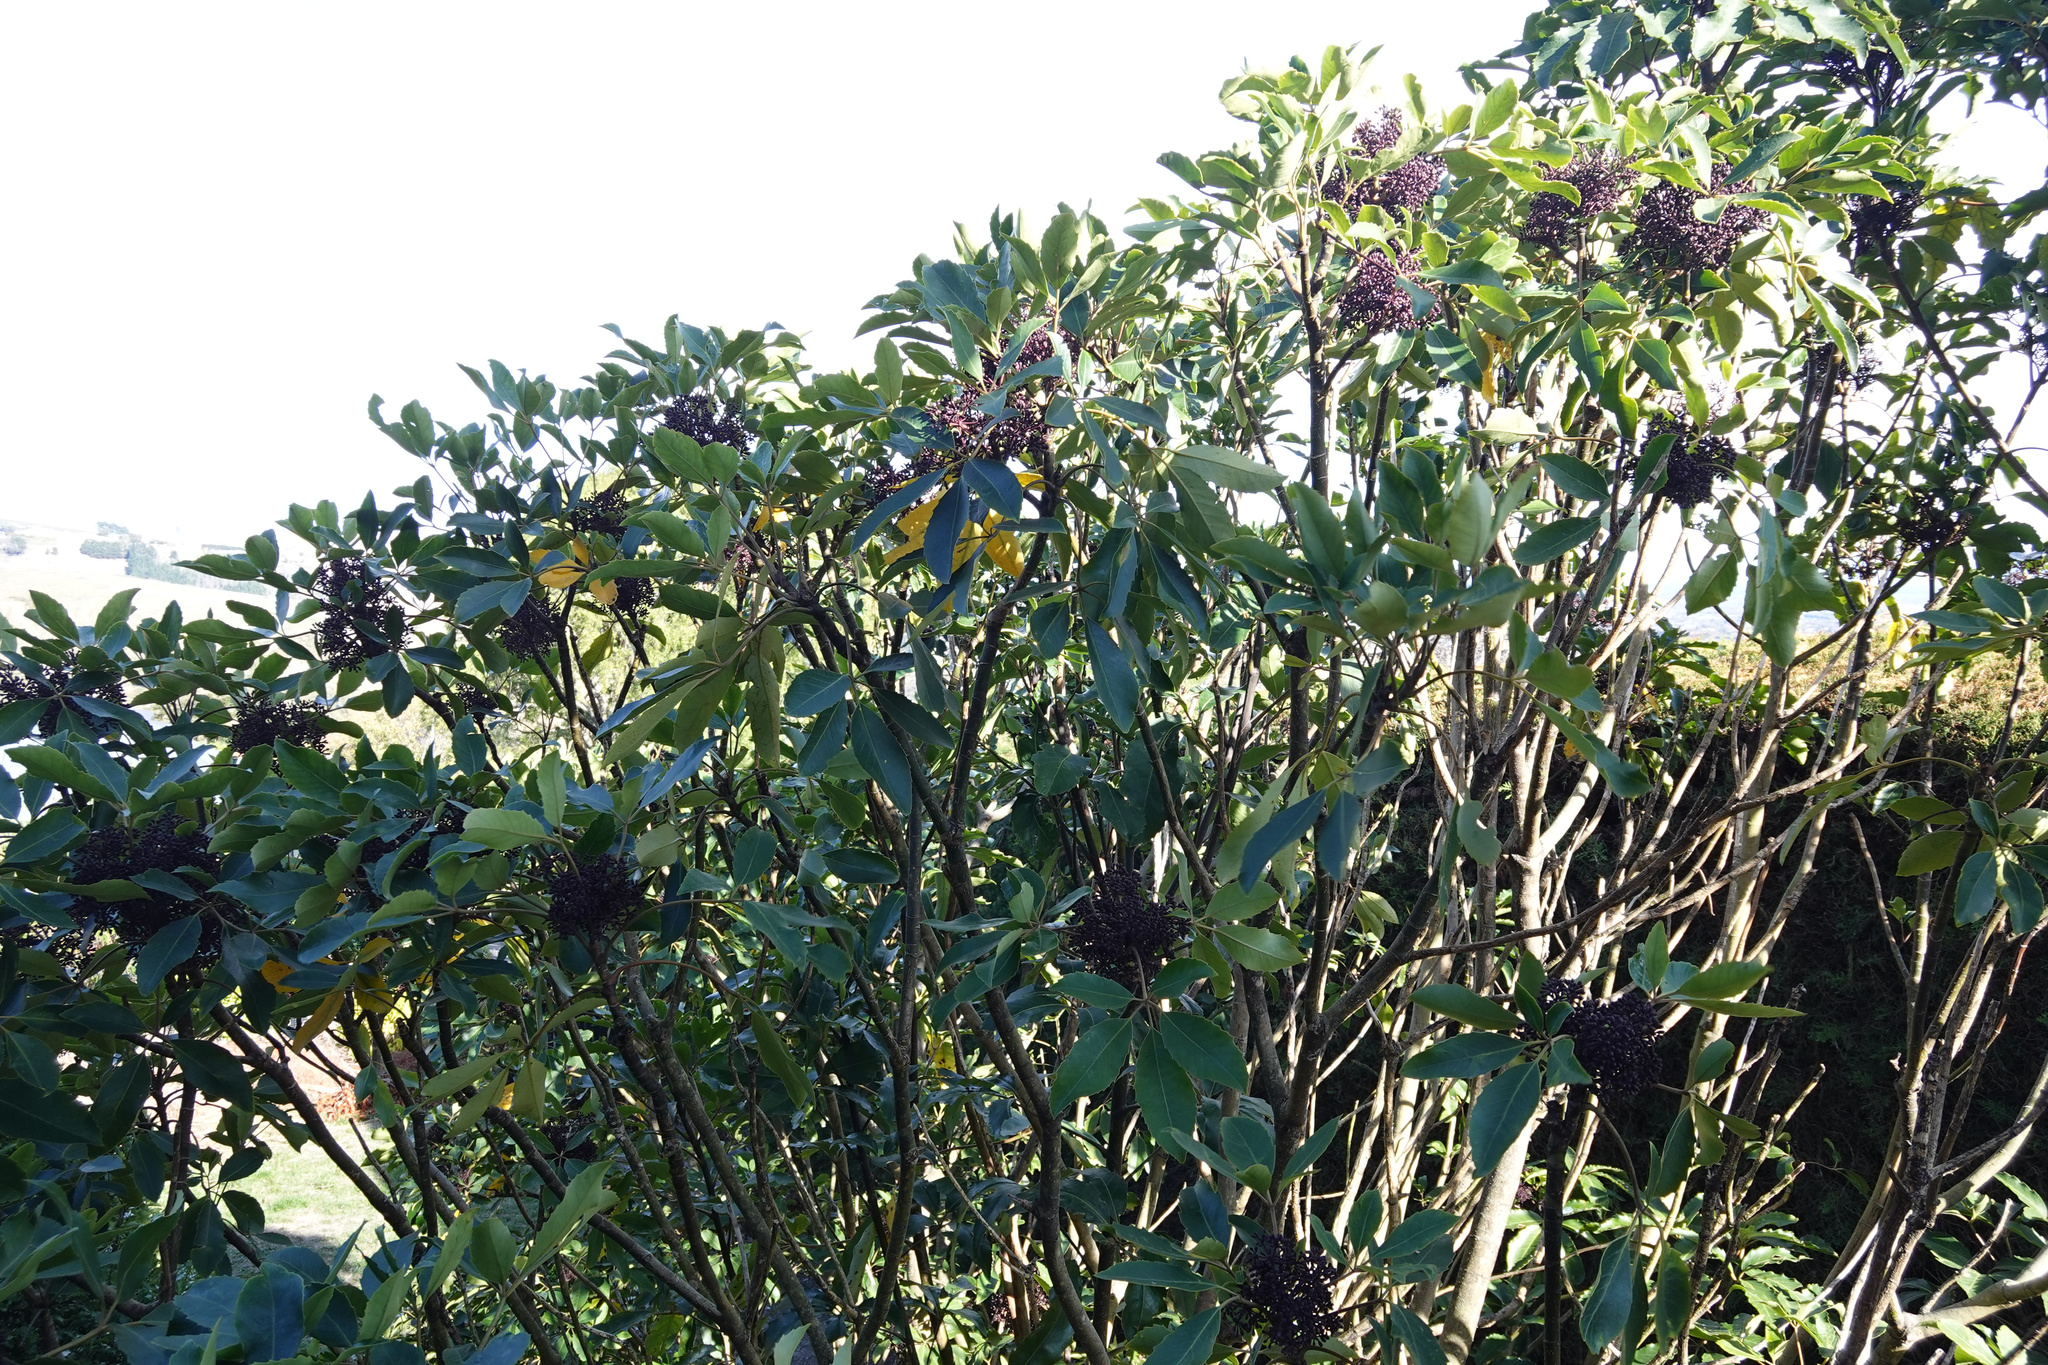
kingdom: Plantae
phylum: Tracheophyta
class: Magnoliopsida
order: Apiales
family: Araliaceae
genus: Neopanax
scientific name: Neopanax arboreus
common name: Five-fingers
